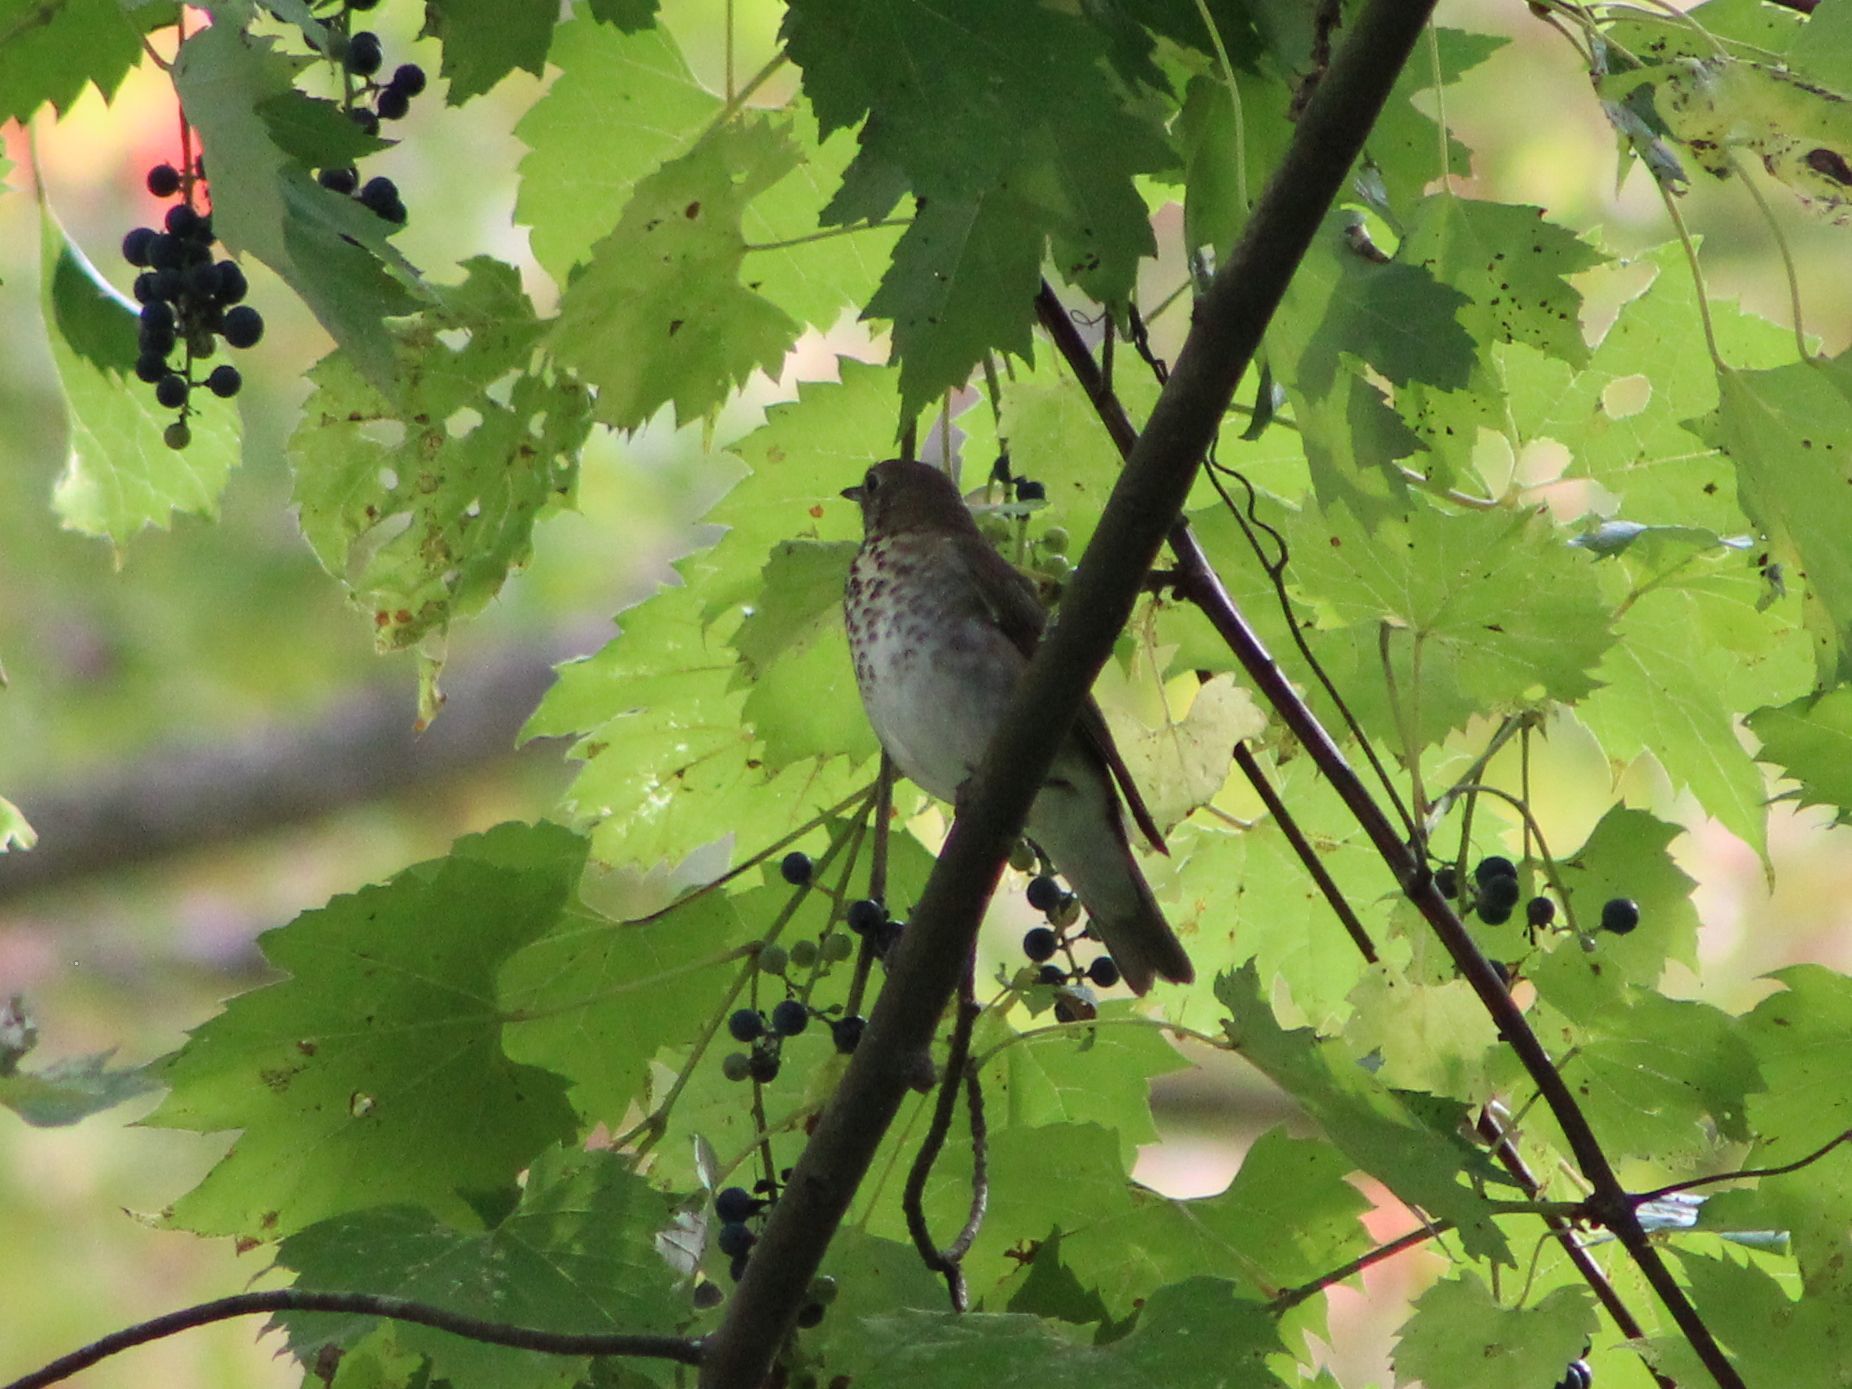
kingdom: Animalia
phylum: Chordata
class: Aves
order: Passeriformes
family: Turdidae
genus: Catharus
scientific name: Catharus ustulatus
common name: Swainson's thrush
